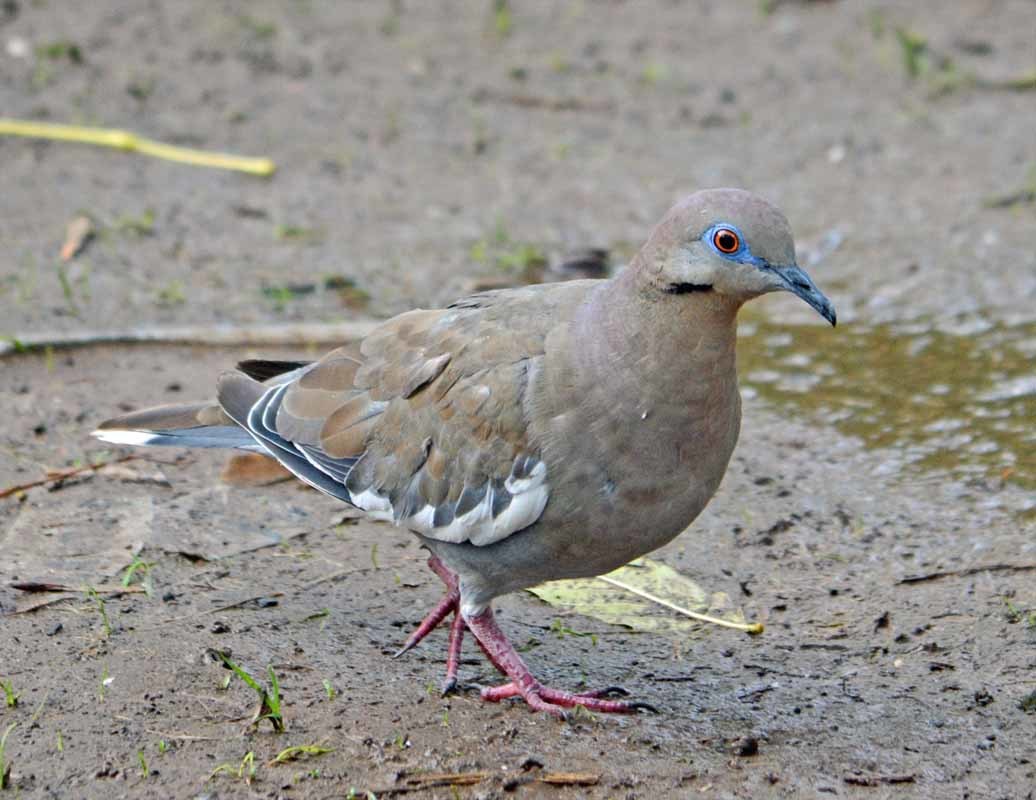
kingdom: Animalia
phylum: Chordata
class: Aves
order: Columbiformes
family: Columbidae
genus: Zenaida
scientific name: Zenaida asiatica
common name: White-winged dove
